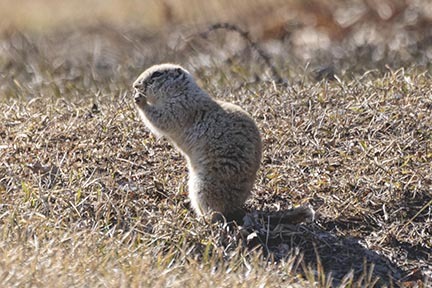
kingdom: Animalia
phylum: Chordata
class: Mammalia
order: Rodentia
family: Sciuridae
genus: Urocitellus
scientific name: Urocitellus richardsonii
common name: Richardson's ground squirrel
